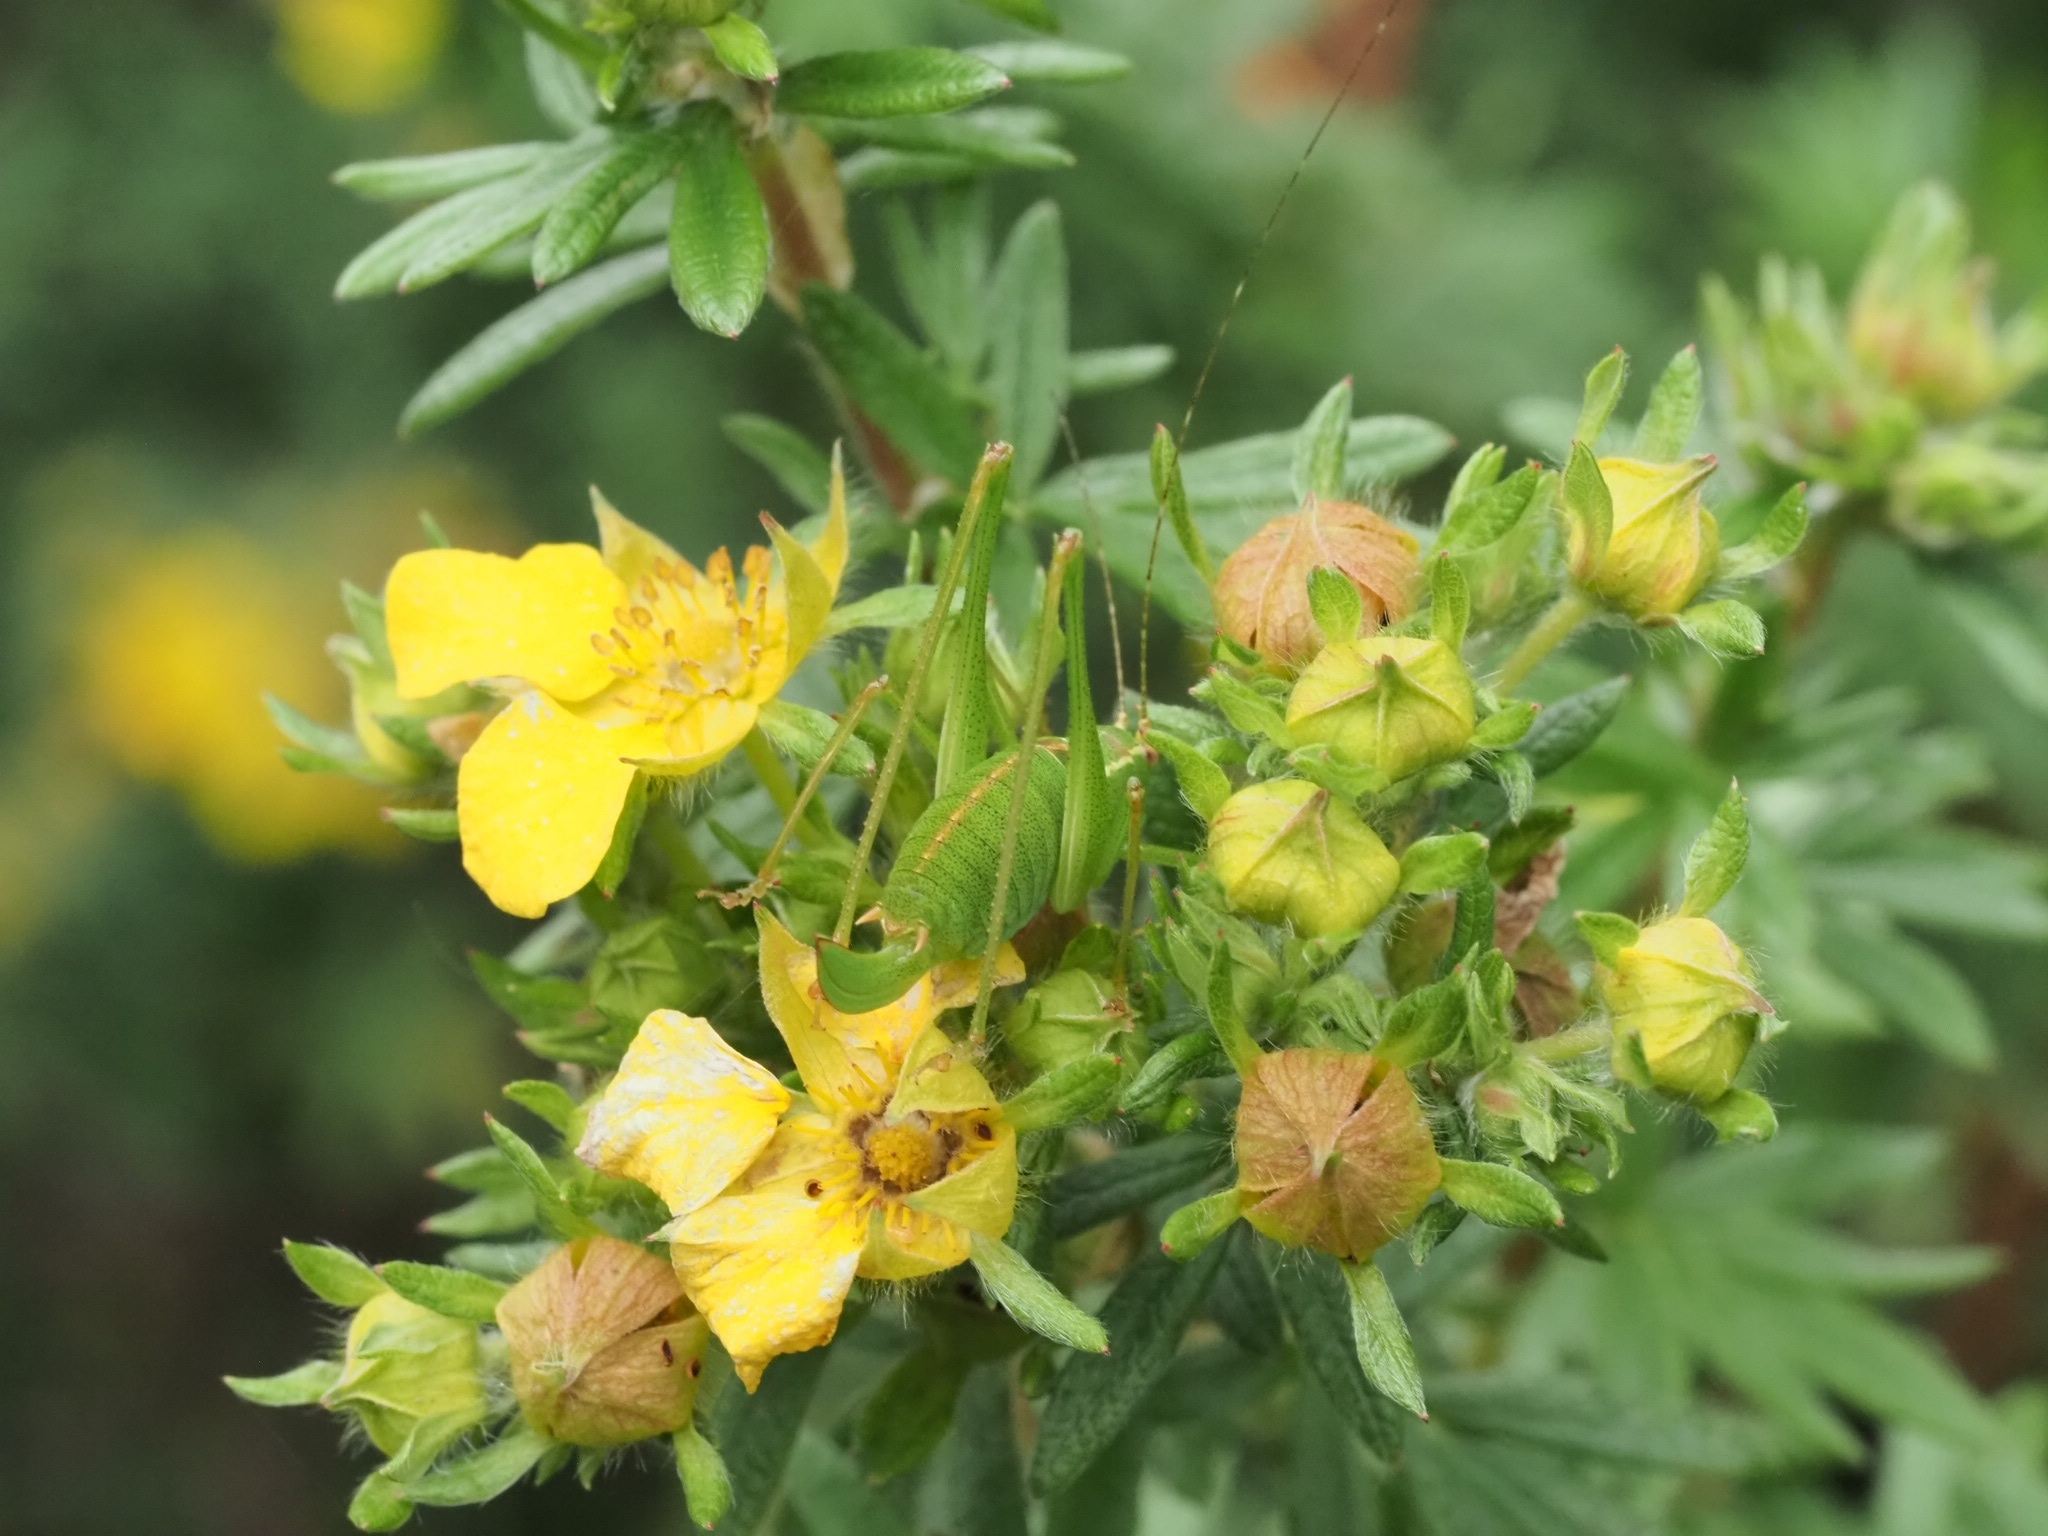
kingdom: Animalia
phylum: Arthropoda
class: Insecta
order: Orthoptera
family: Tettigoniidae
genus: Leptophyes
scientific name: Leptophyes punctatissima
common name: Speckled bush-cricket
